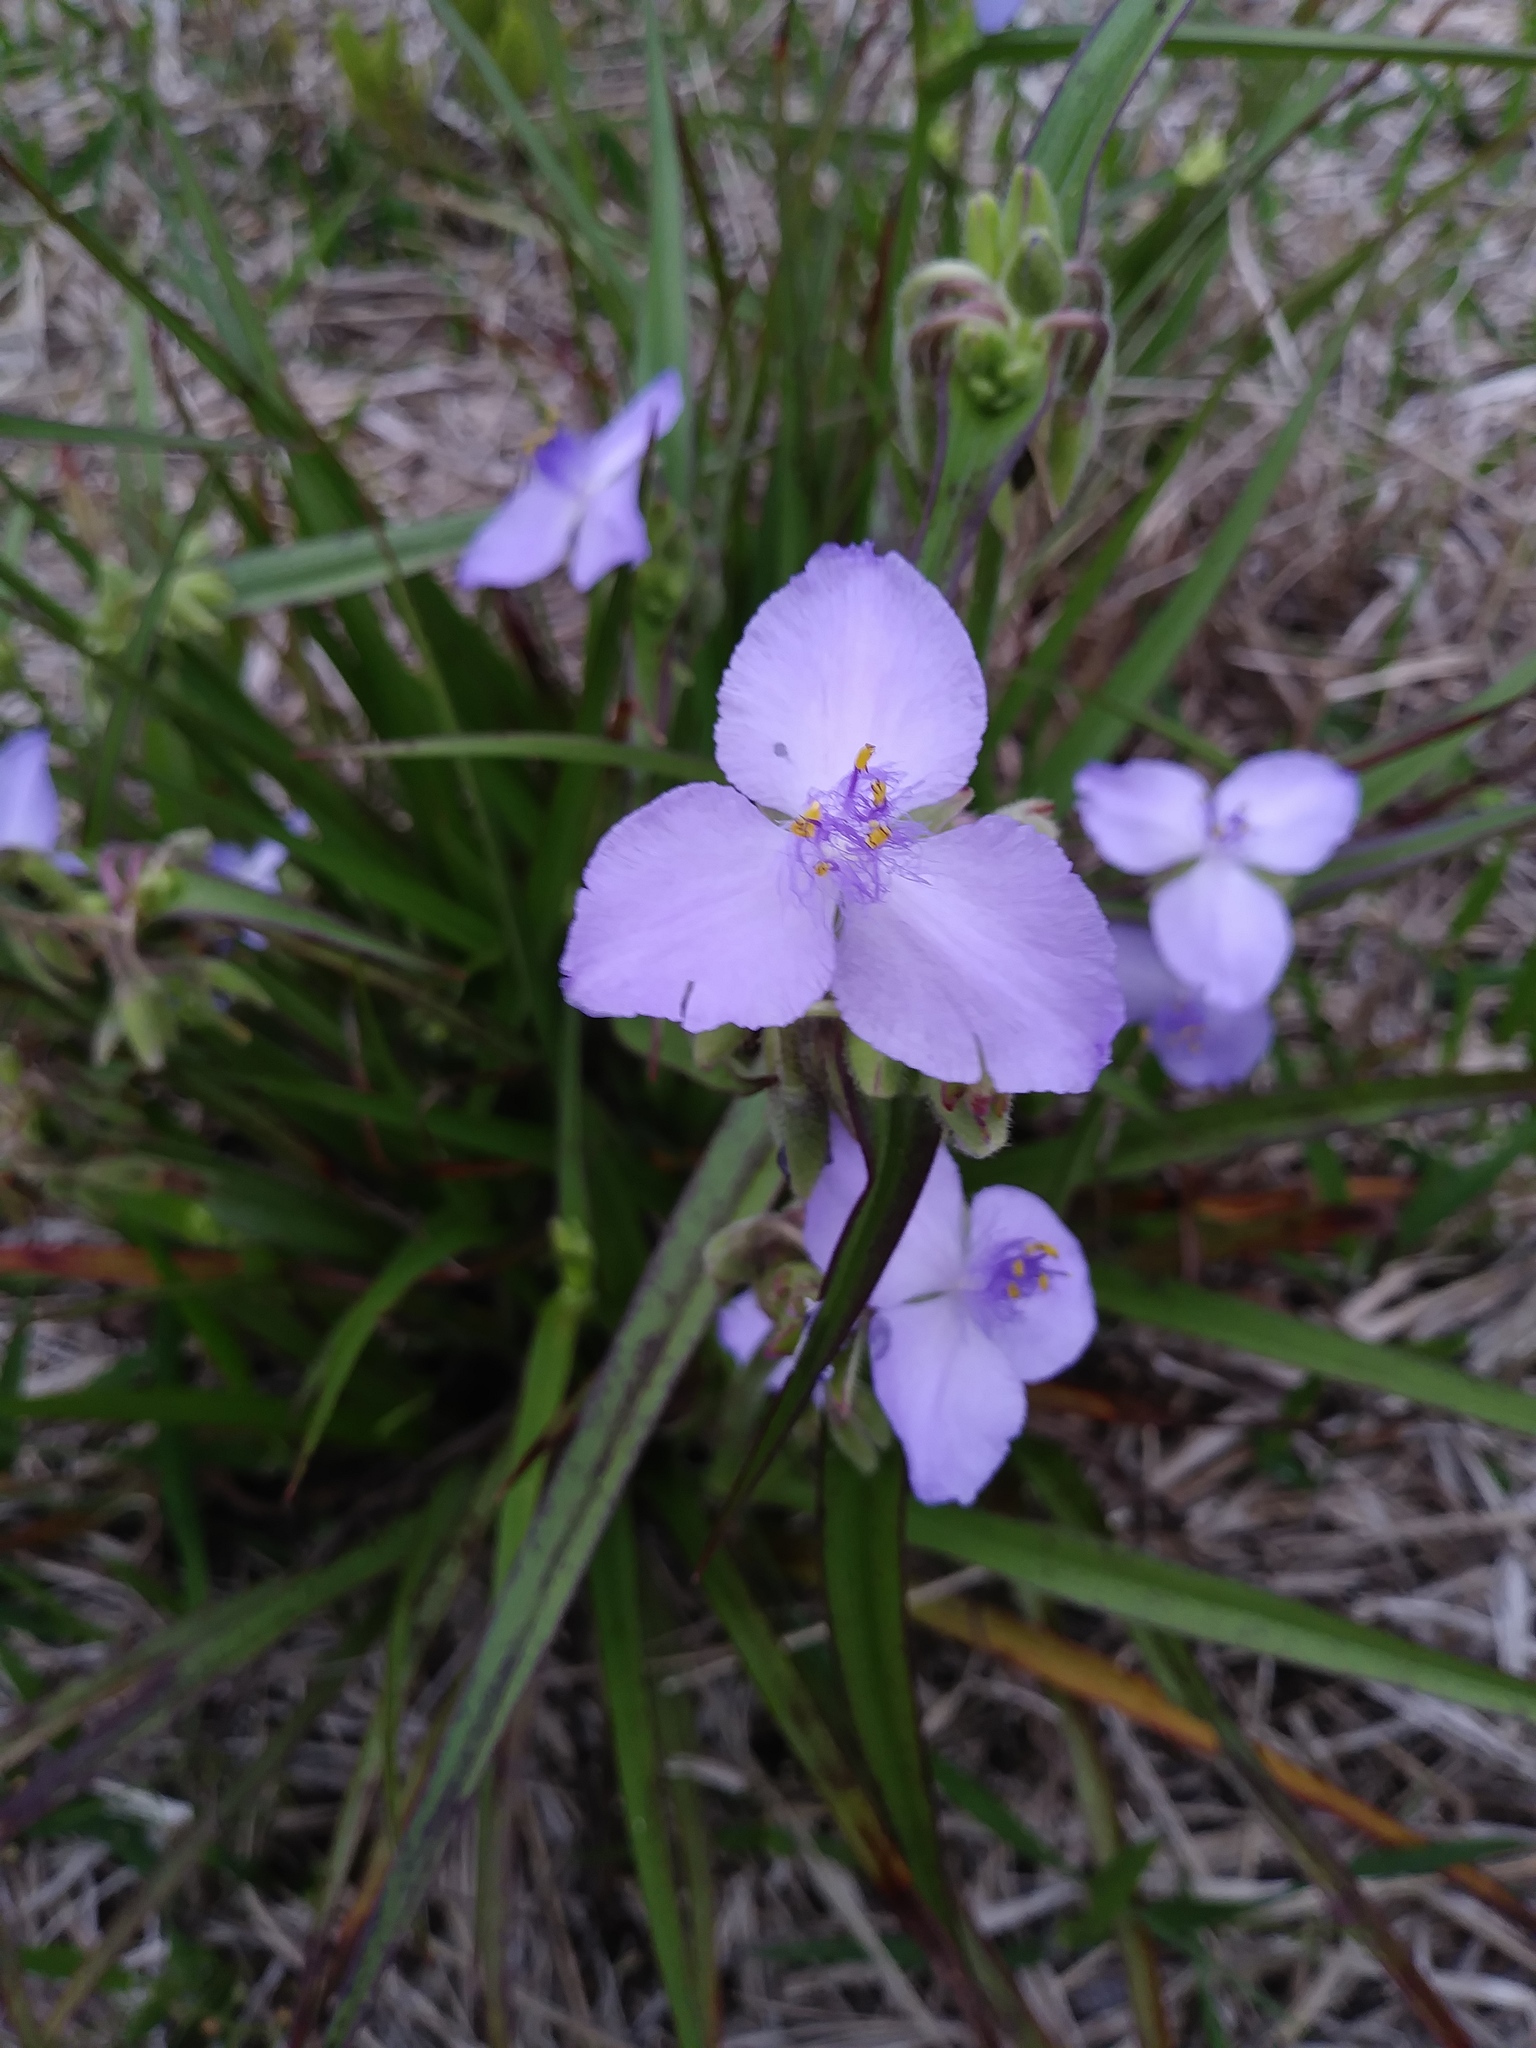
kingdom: Plantae
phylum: Tracheophyta
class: Liliopsida
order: Commelinales
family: Commelinaceae
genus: Tradescantia
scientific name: Tradescantia roseolens
